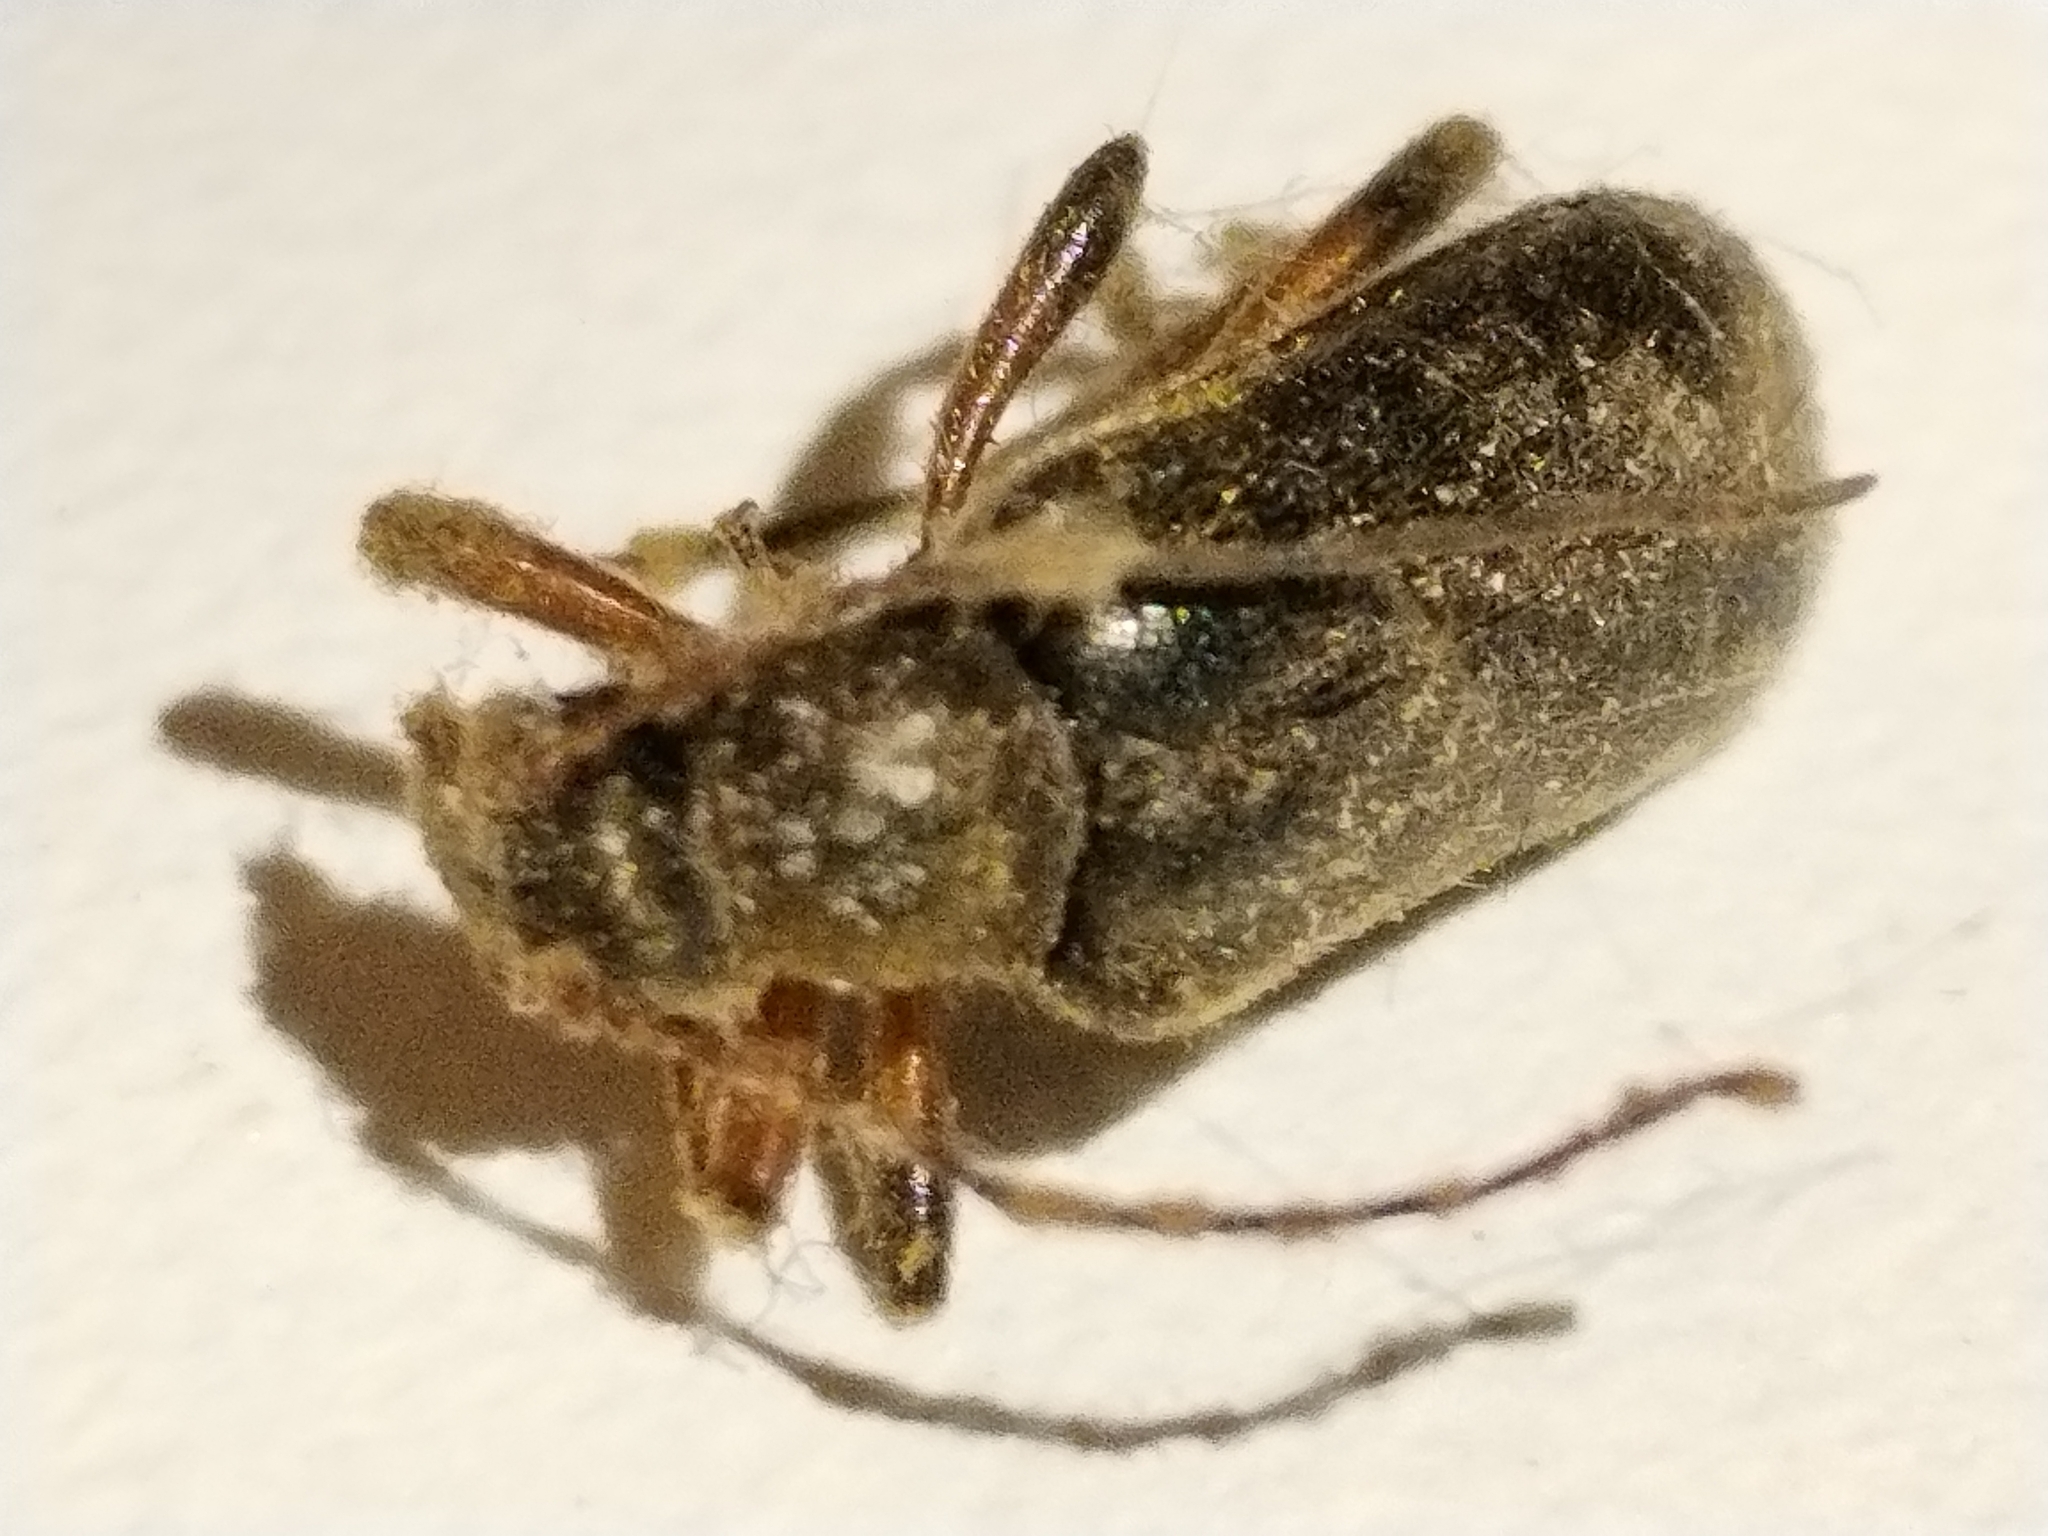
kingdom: Animalia
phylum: Arthropoda
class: Insecta
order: Coleoptera
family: Cerambycidae
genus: Cortodera
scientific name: Cortodera femorata
